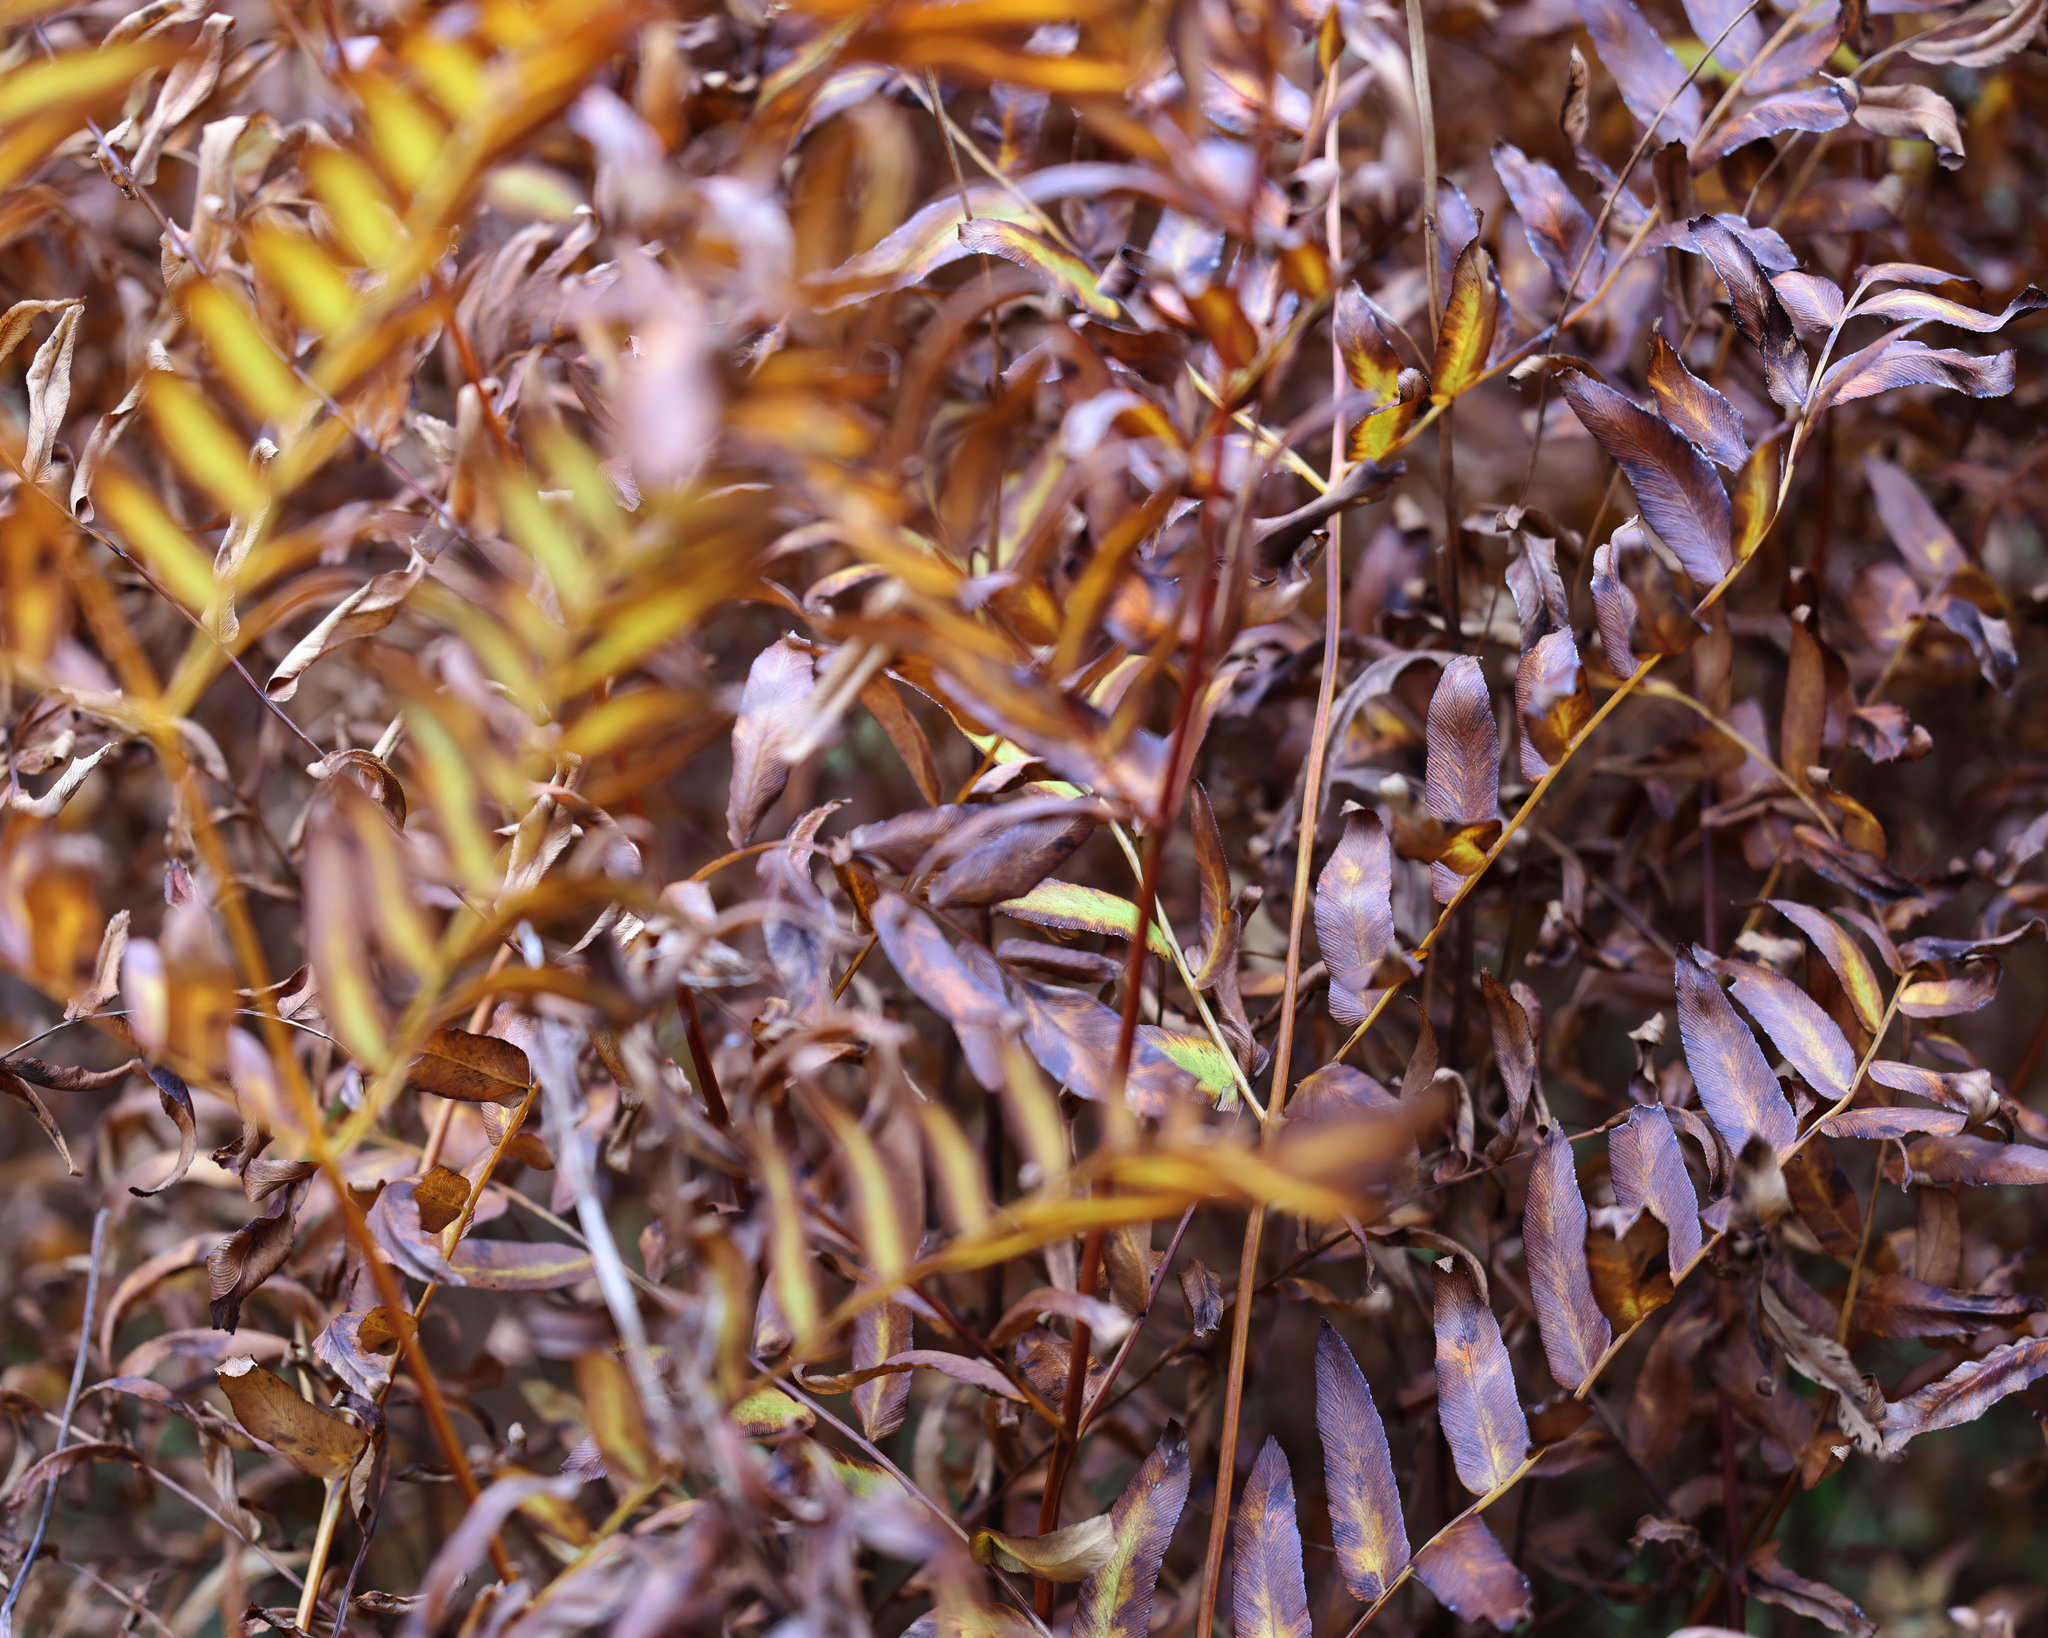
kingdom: Plantae
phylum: Tracheophyta
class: Polypodiopsida
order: Osmundales
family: Osmundaceae
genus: Osmunda
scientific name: Osmunda spectabilis
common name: American royal fern
